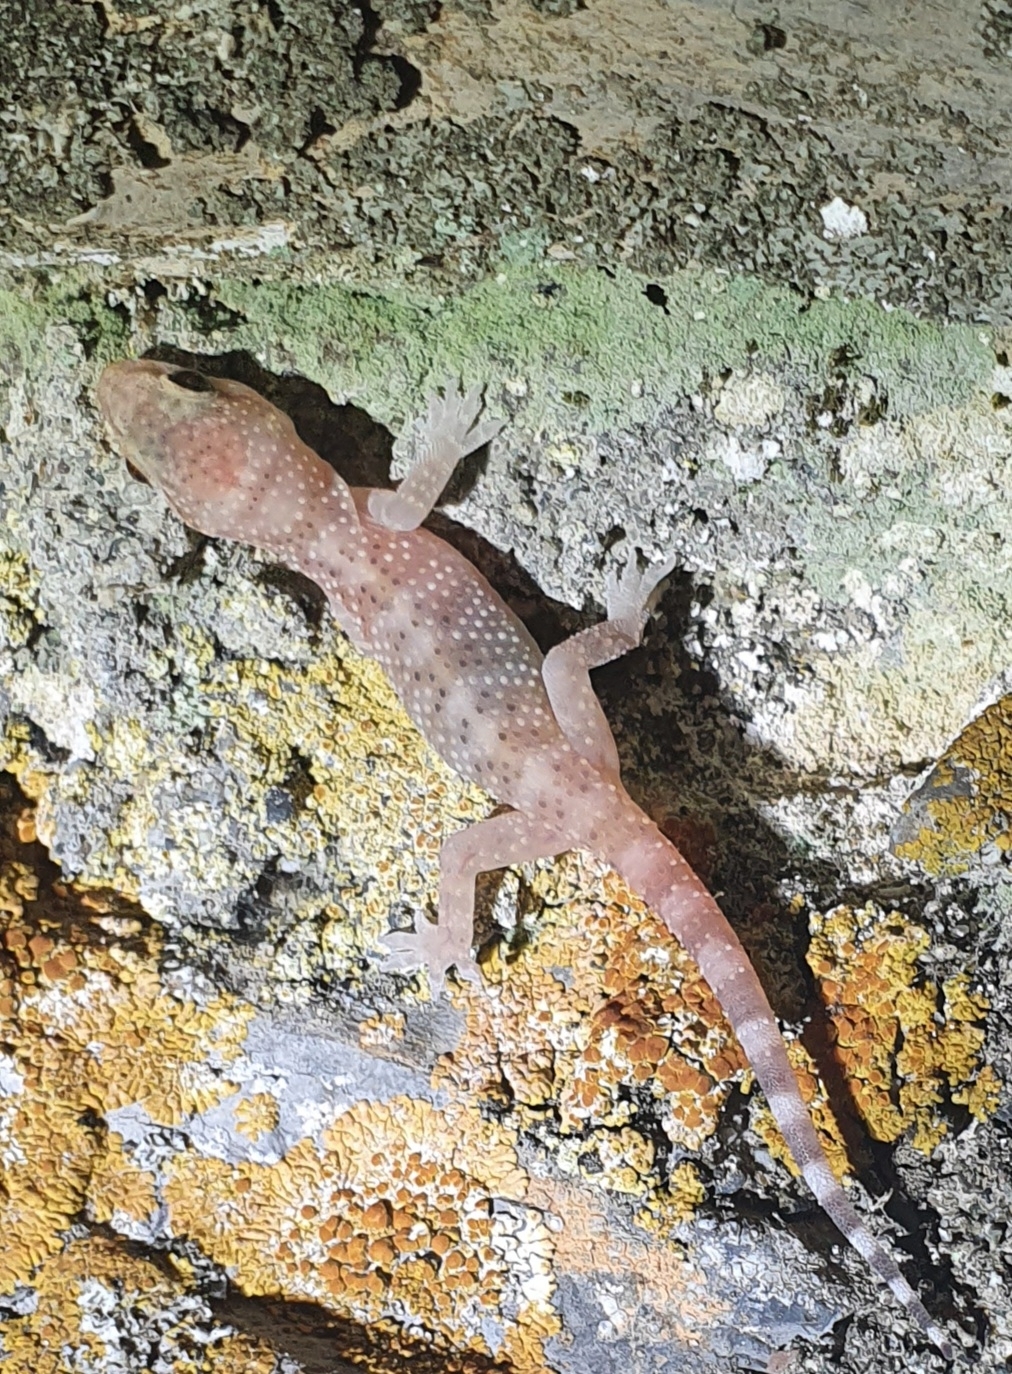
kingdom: Animalia
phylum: Chordata
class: Squamata
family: Gekkonidae
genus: Hemidactylus
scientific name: Hemidactylus turcicus
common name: Turkish gecko
